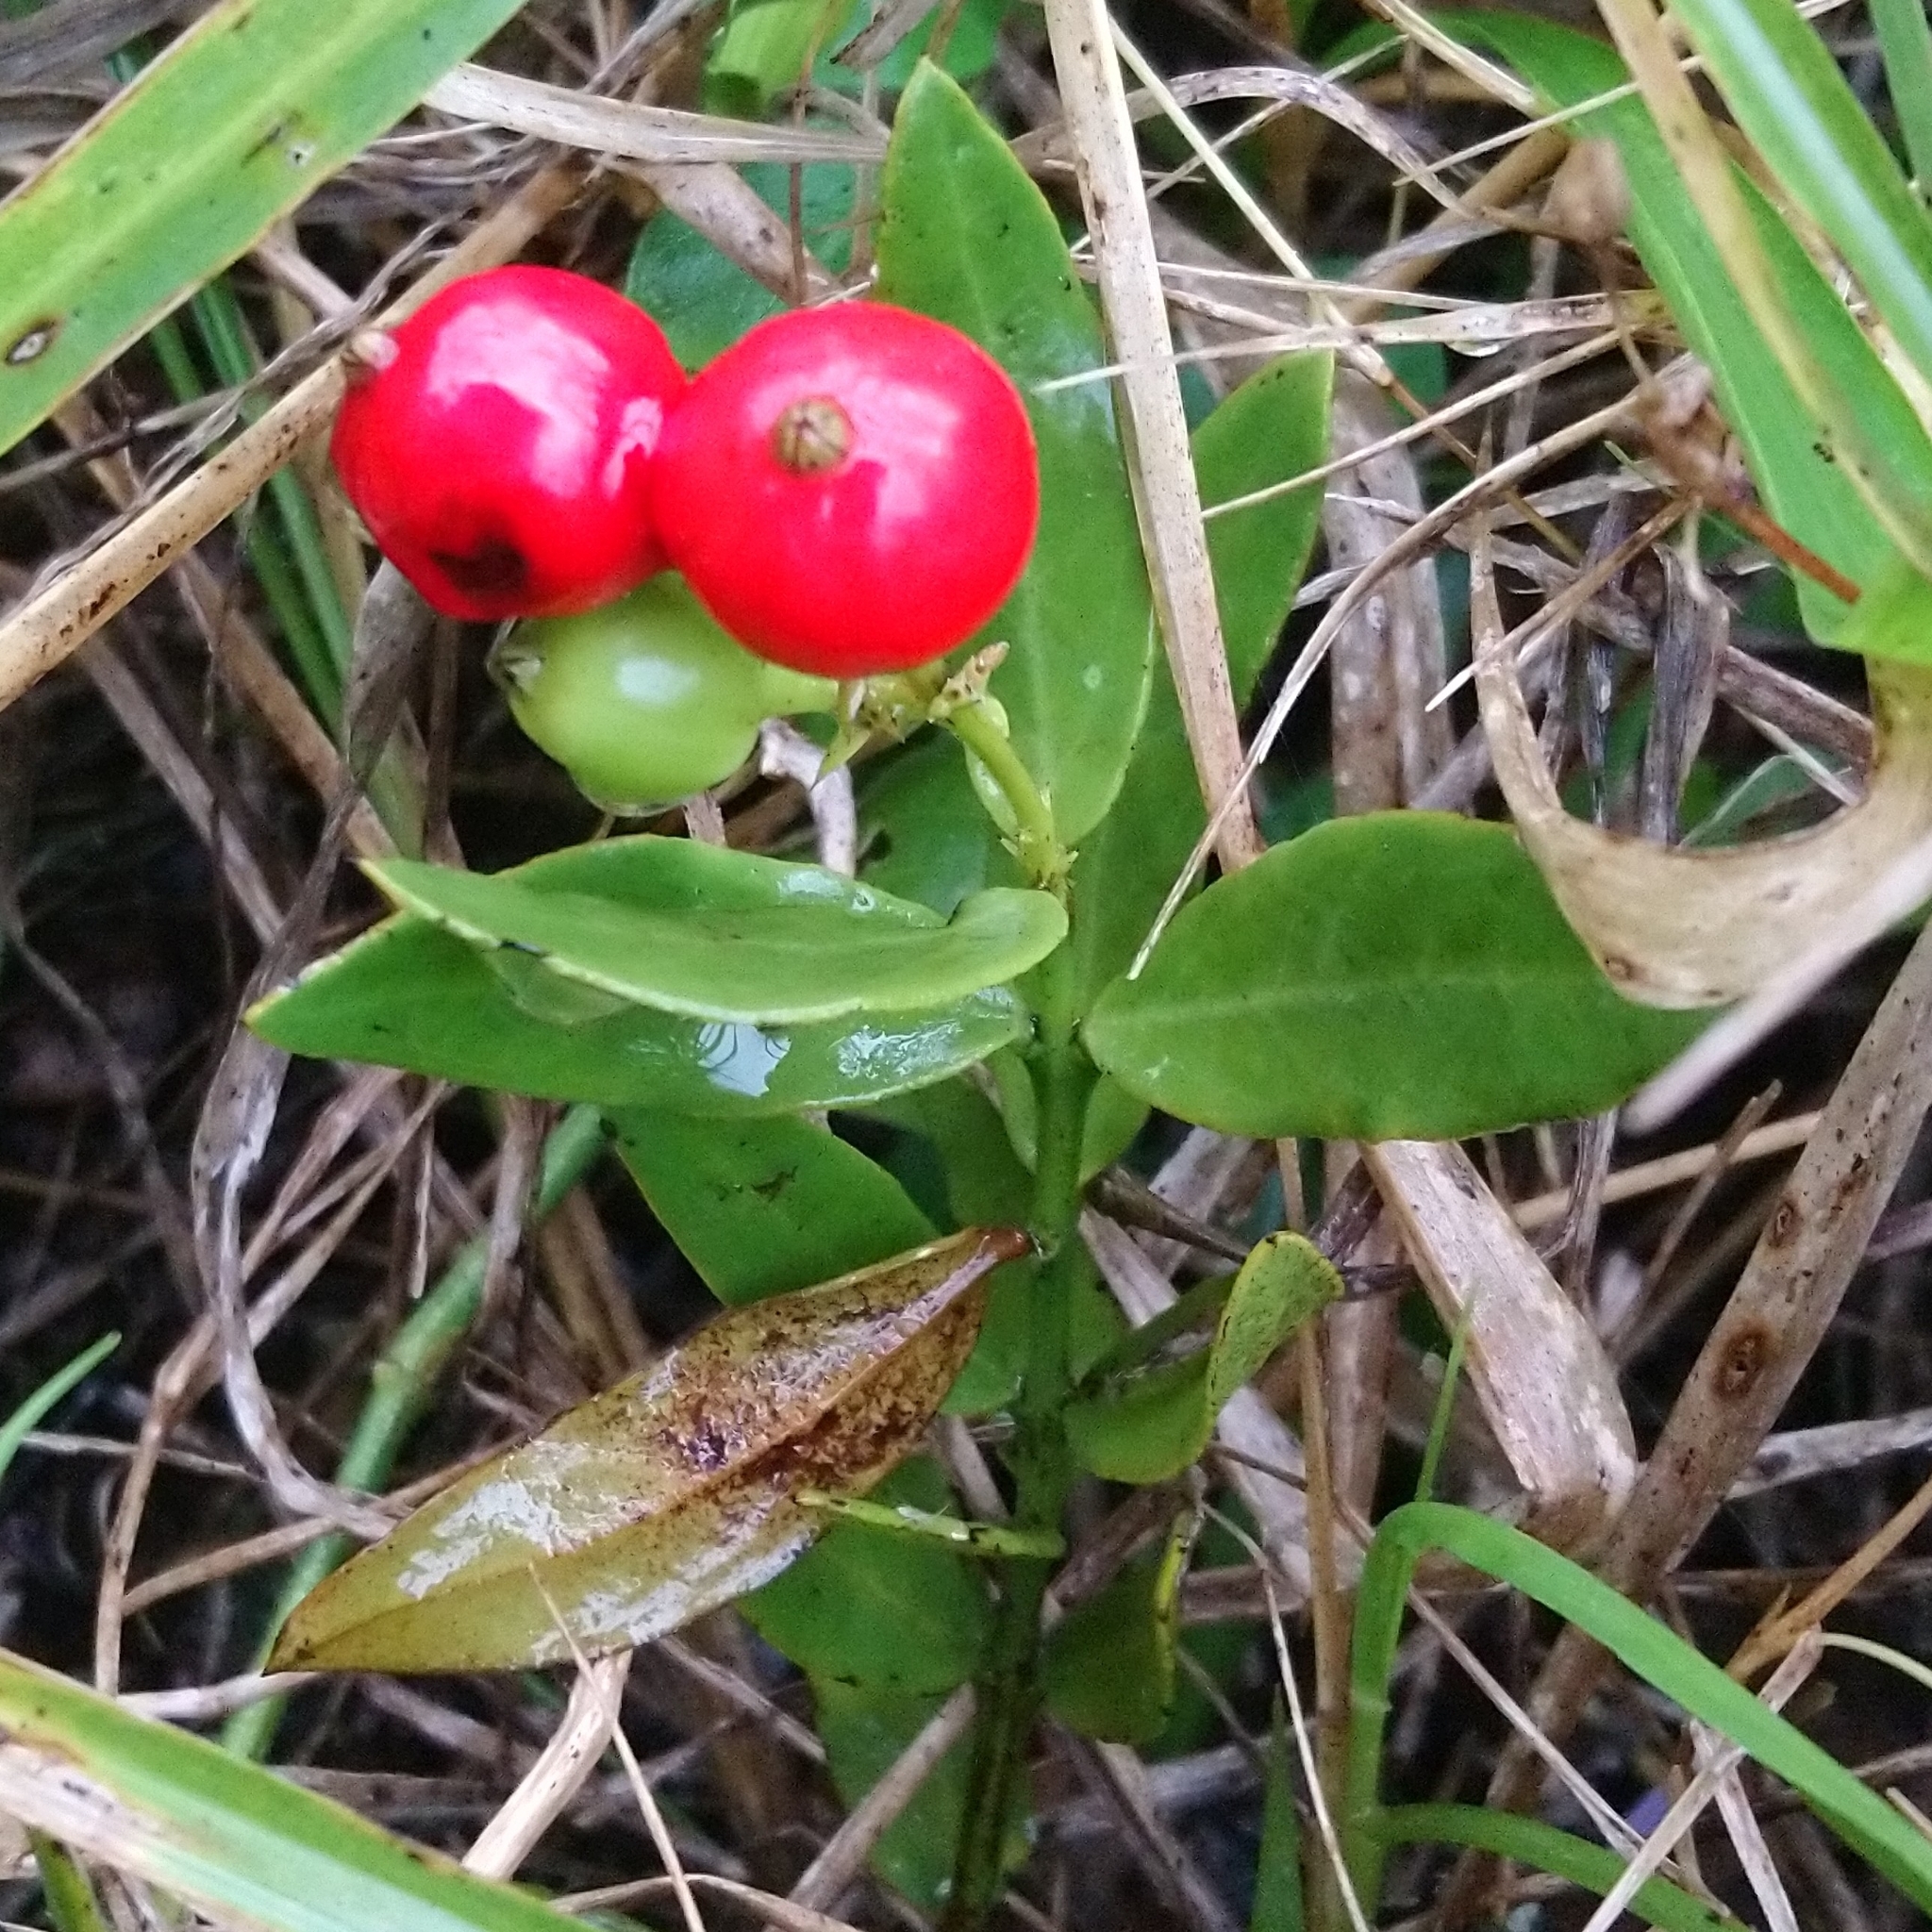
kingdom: Plantae
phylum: Tracheophyta
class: Magnoliopsida
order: Santalales
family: Santalaceae
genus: Rhoiacarpos
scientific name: Rhoiacarpos capensis
